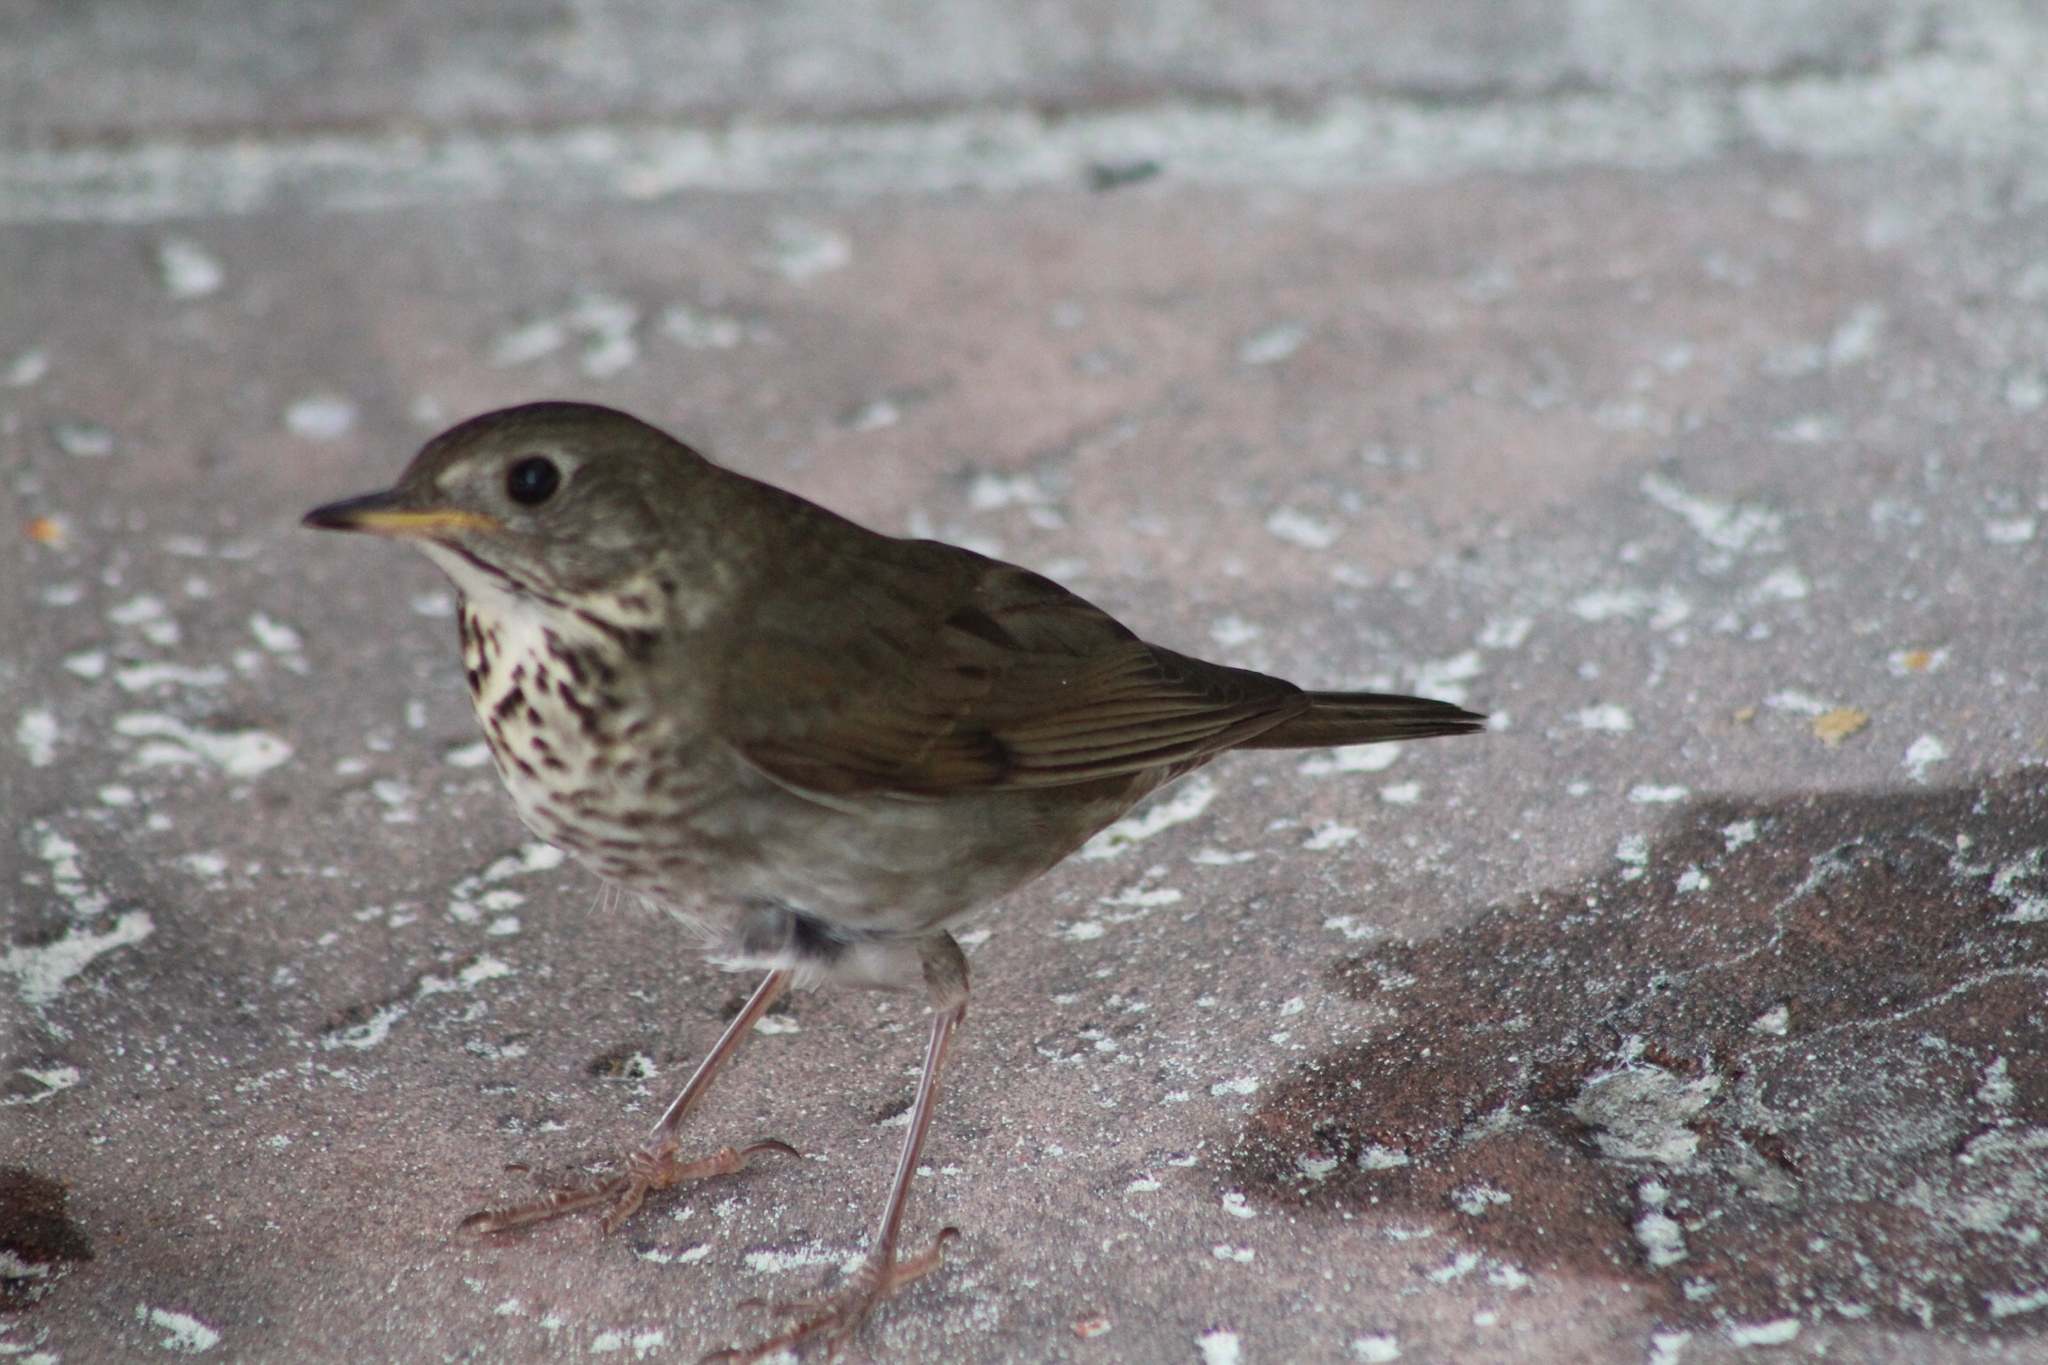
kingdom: Animalia
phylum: Chordata
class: Aves
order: Passeriformes
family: Turdidae
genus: Catharus
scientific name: Catharus minimus
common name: Grey-cheeked thrush
